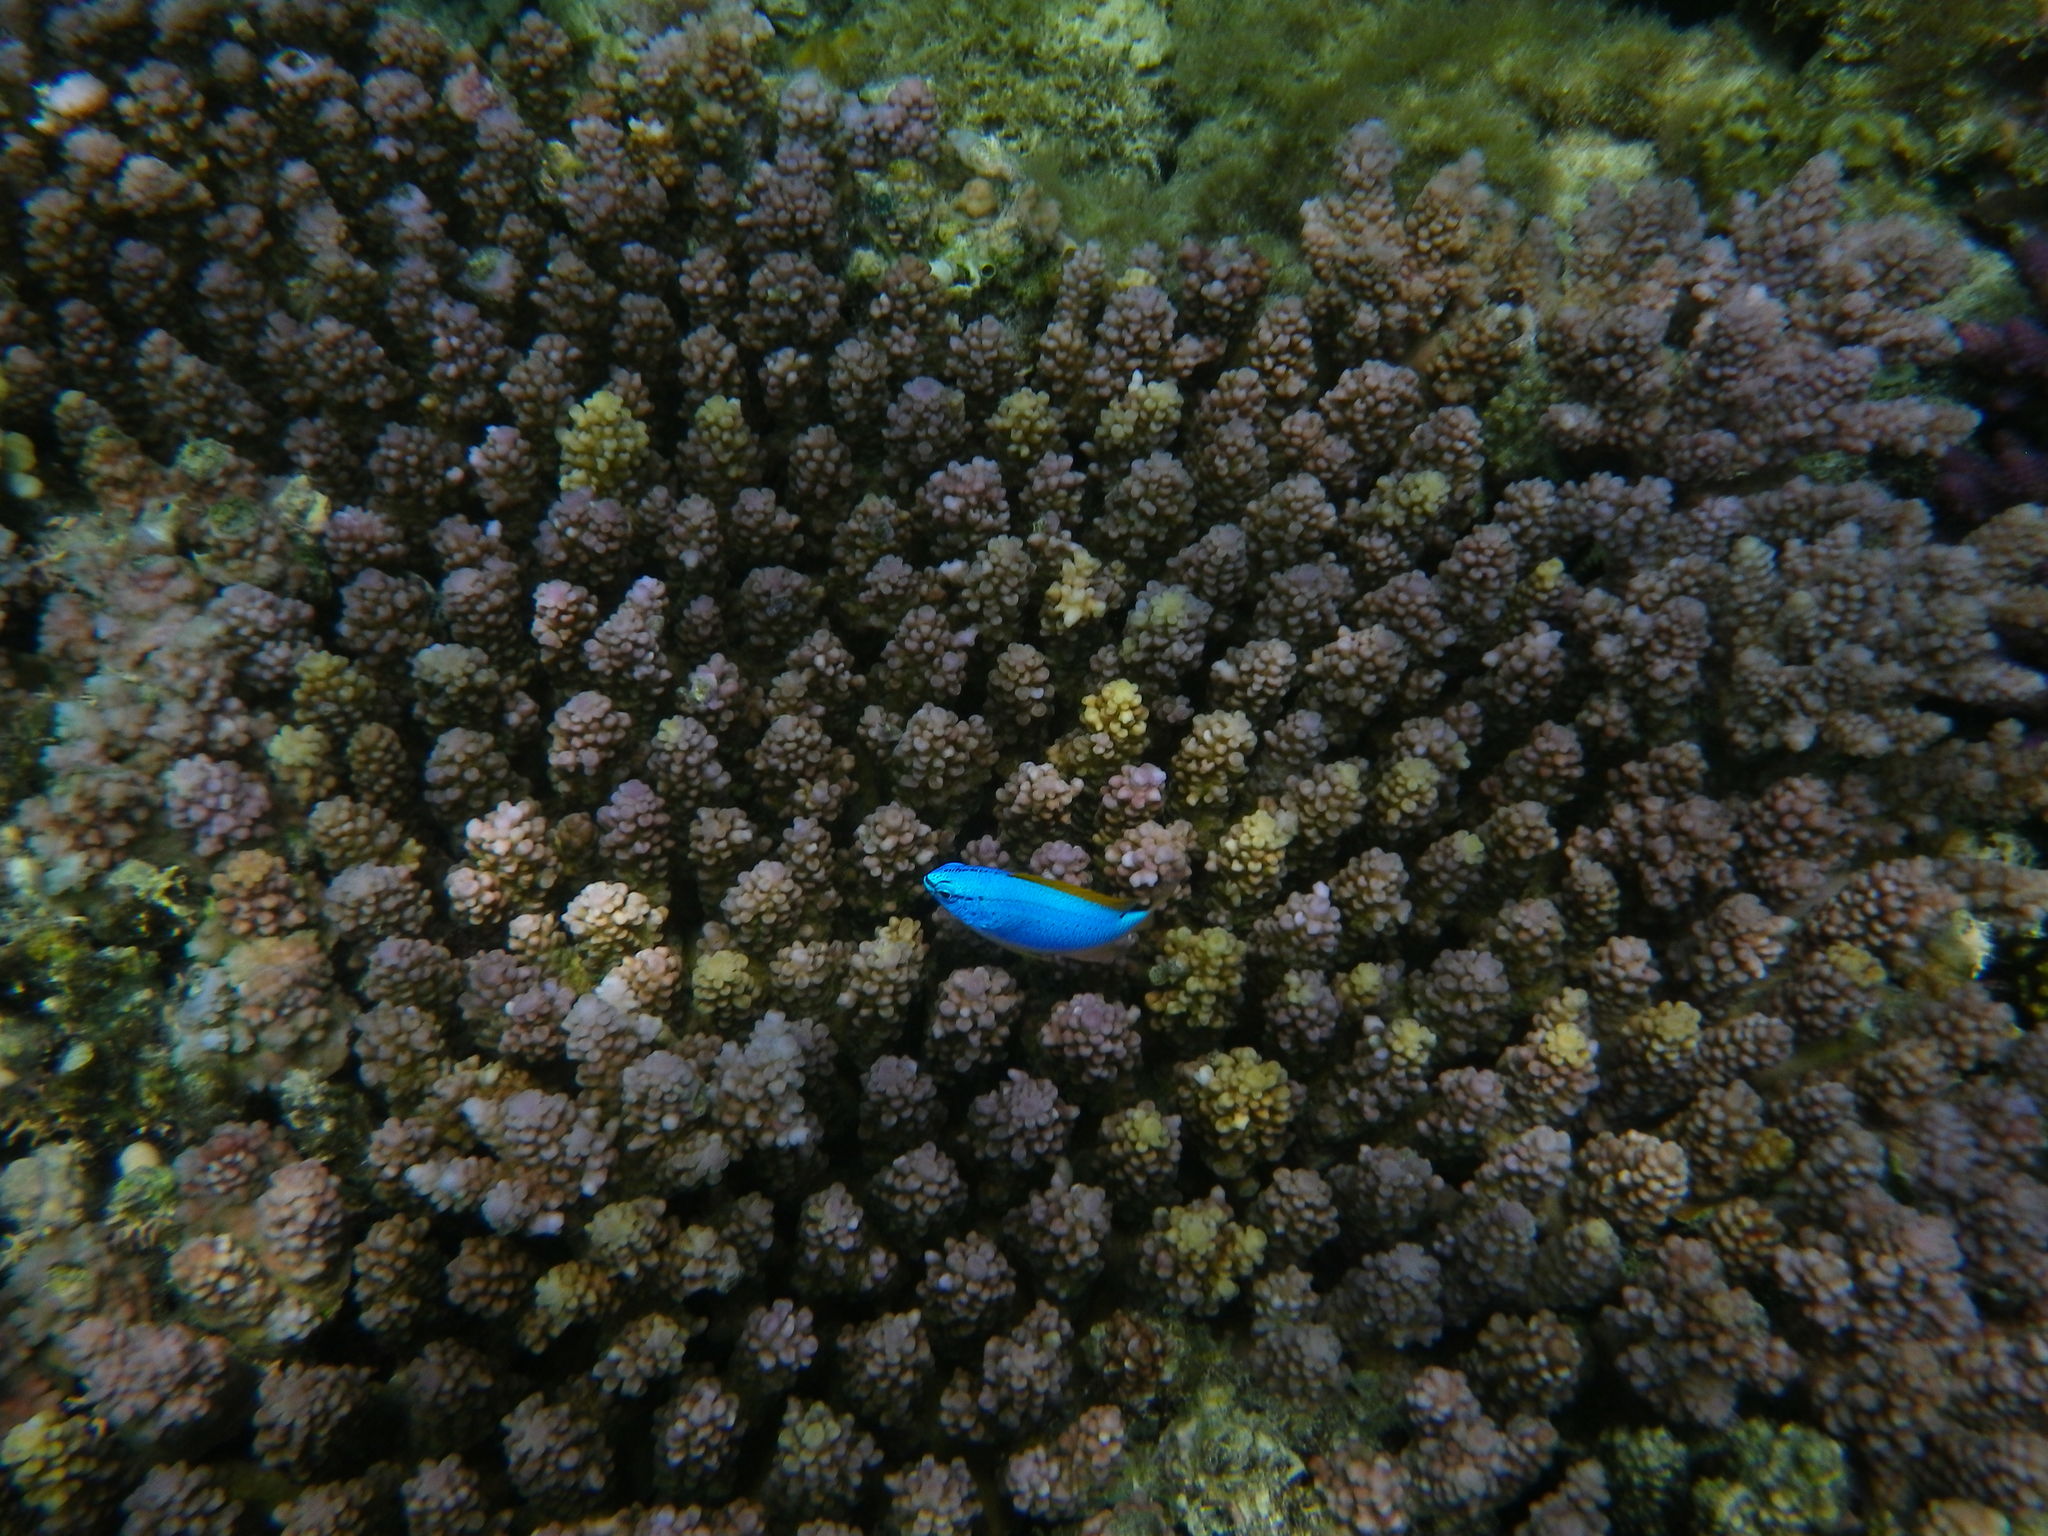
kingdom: Animalia
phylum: Chordata
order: Perciformes
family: Pomacentridae
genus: Chrysiptera
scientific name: Chrysiptera taupou
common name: Fiji damsel
